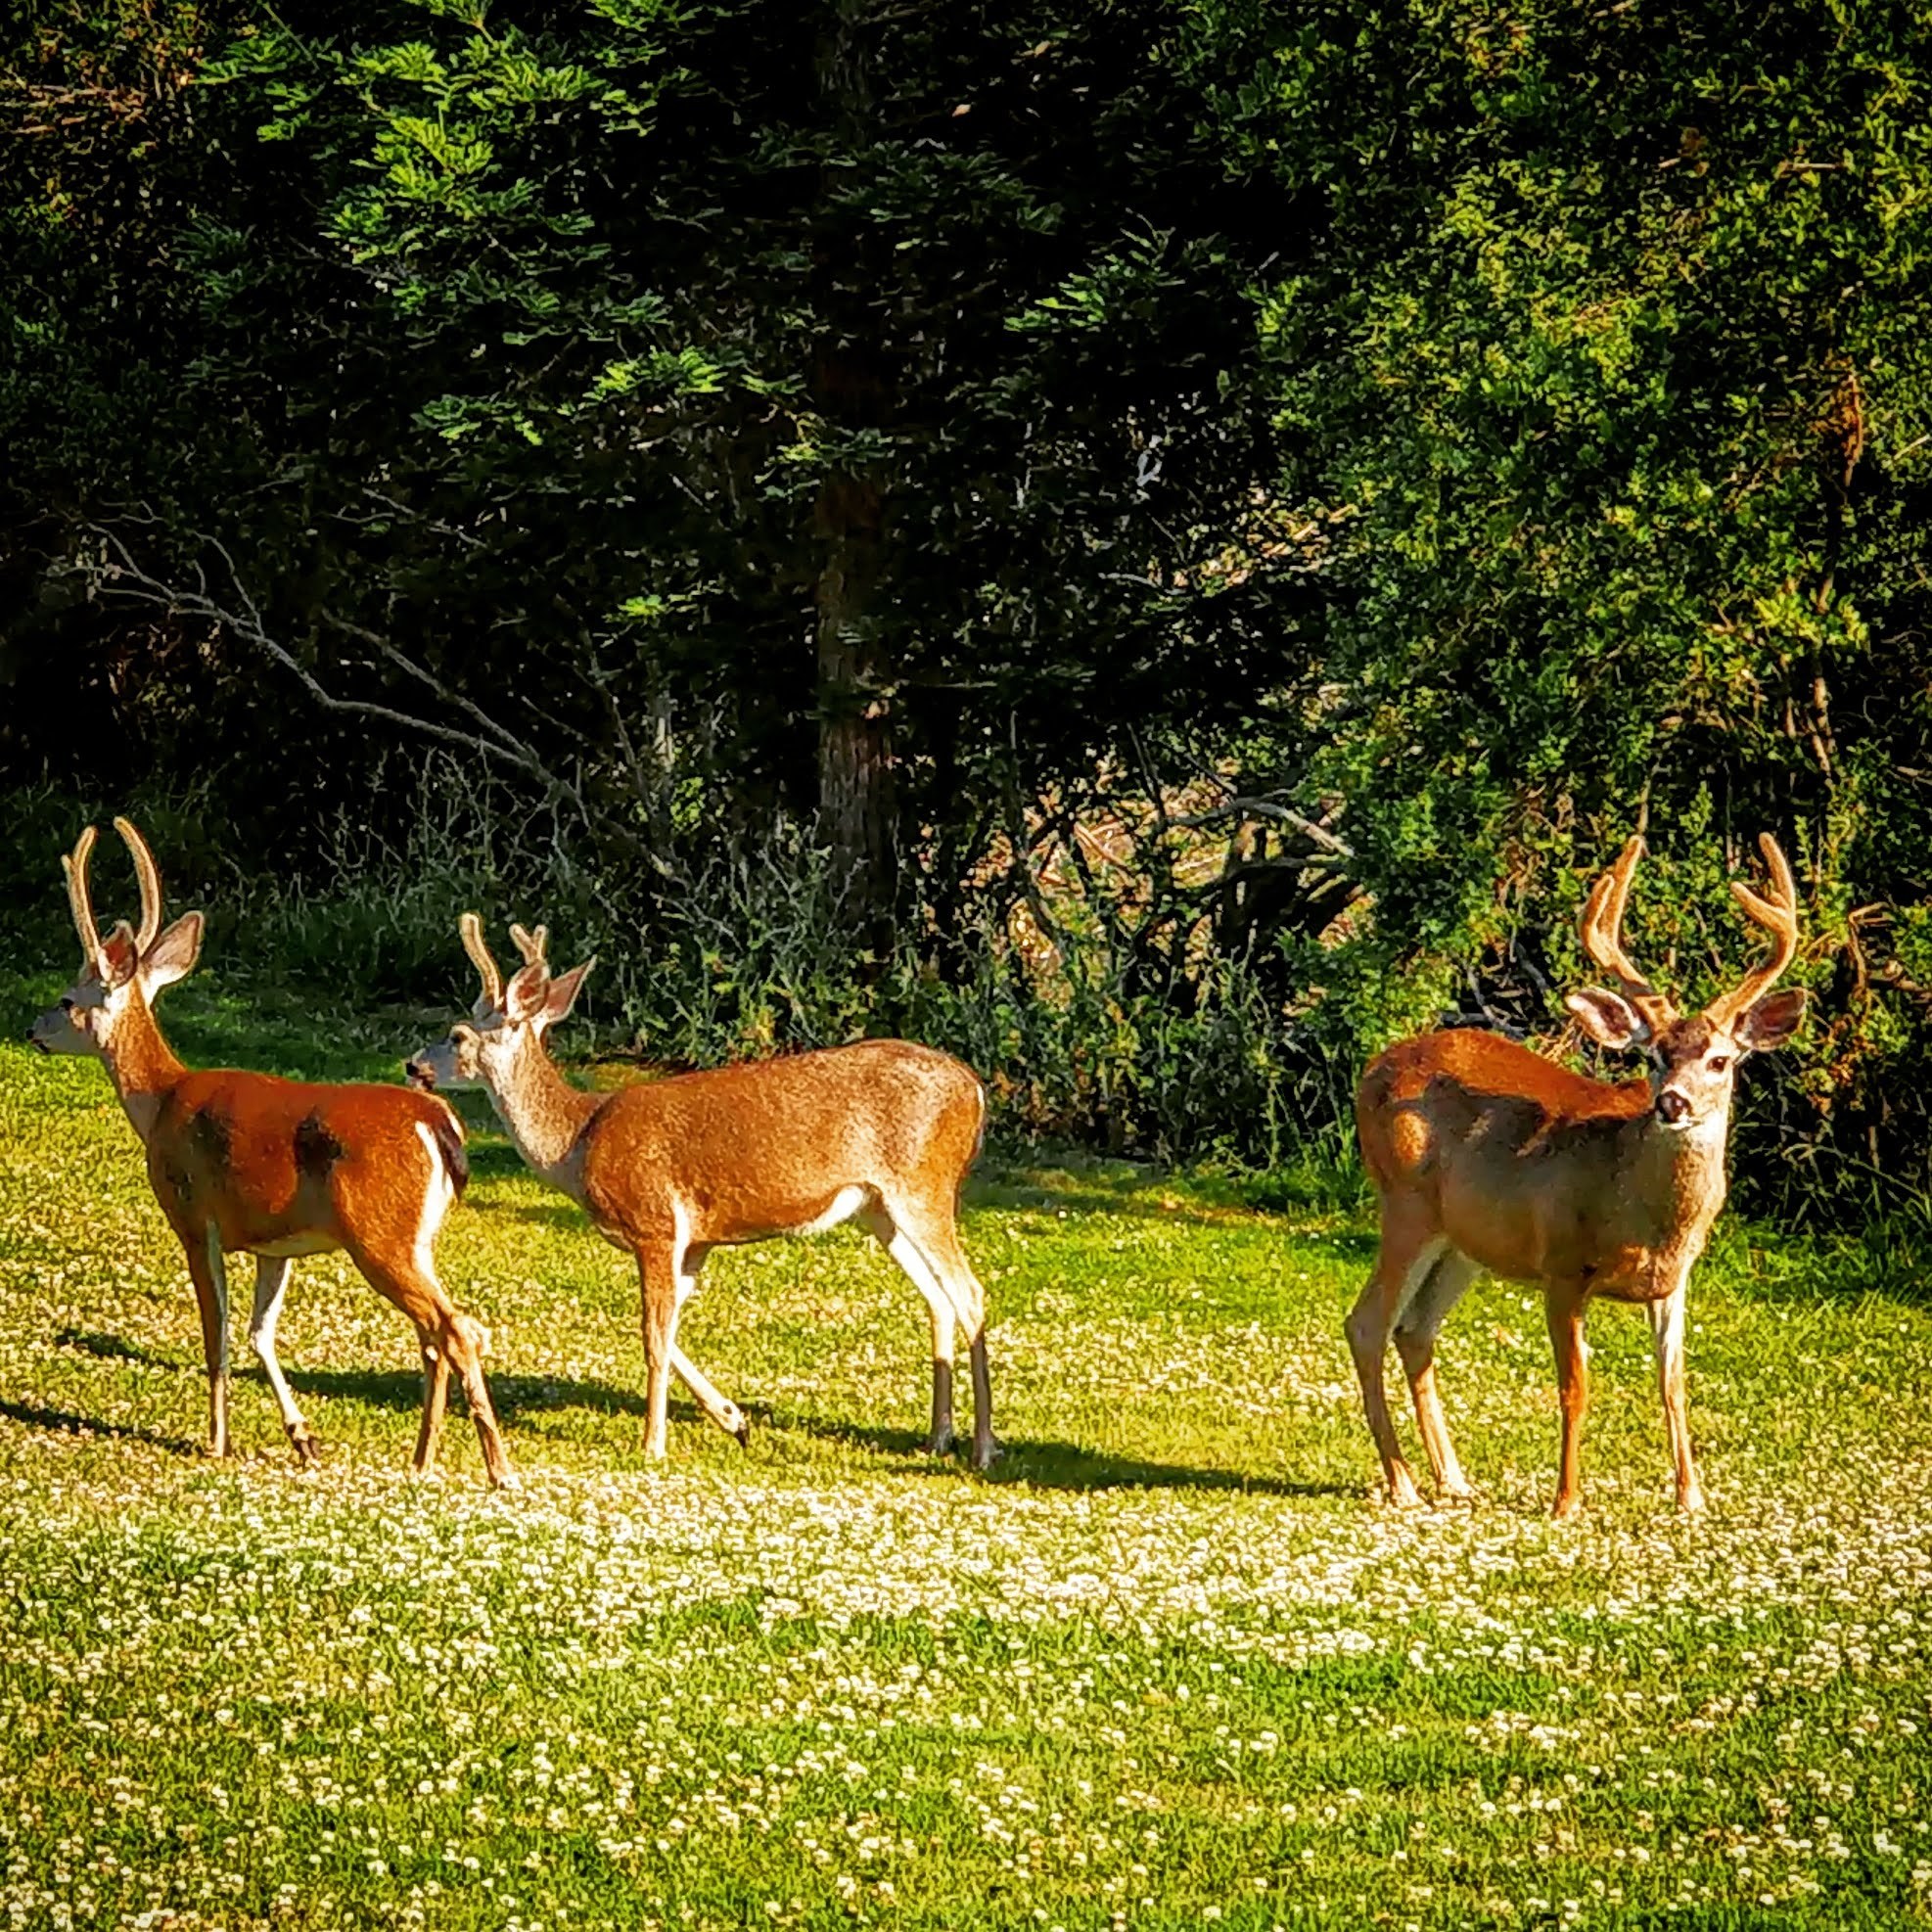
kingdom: Animalia
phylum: Chordata
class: Mammalia
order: Artiodactyla
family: Cervidae
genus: Odocoileus
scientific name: Odocoileus hemionus
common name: Mule deer
